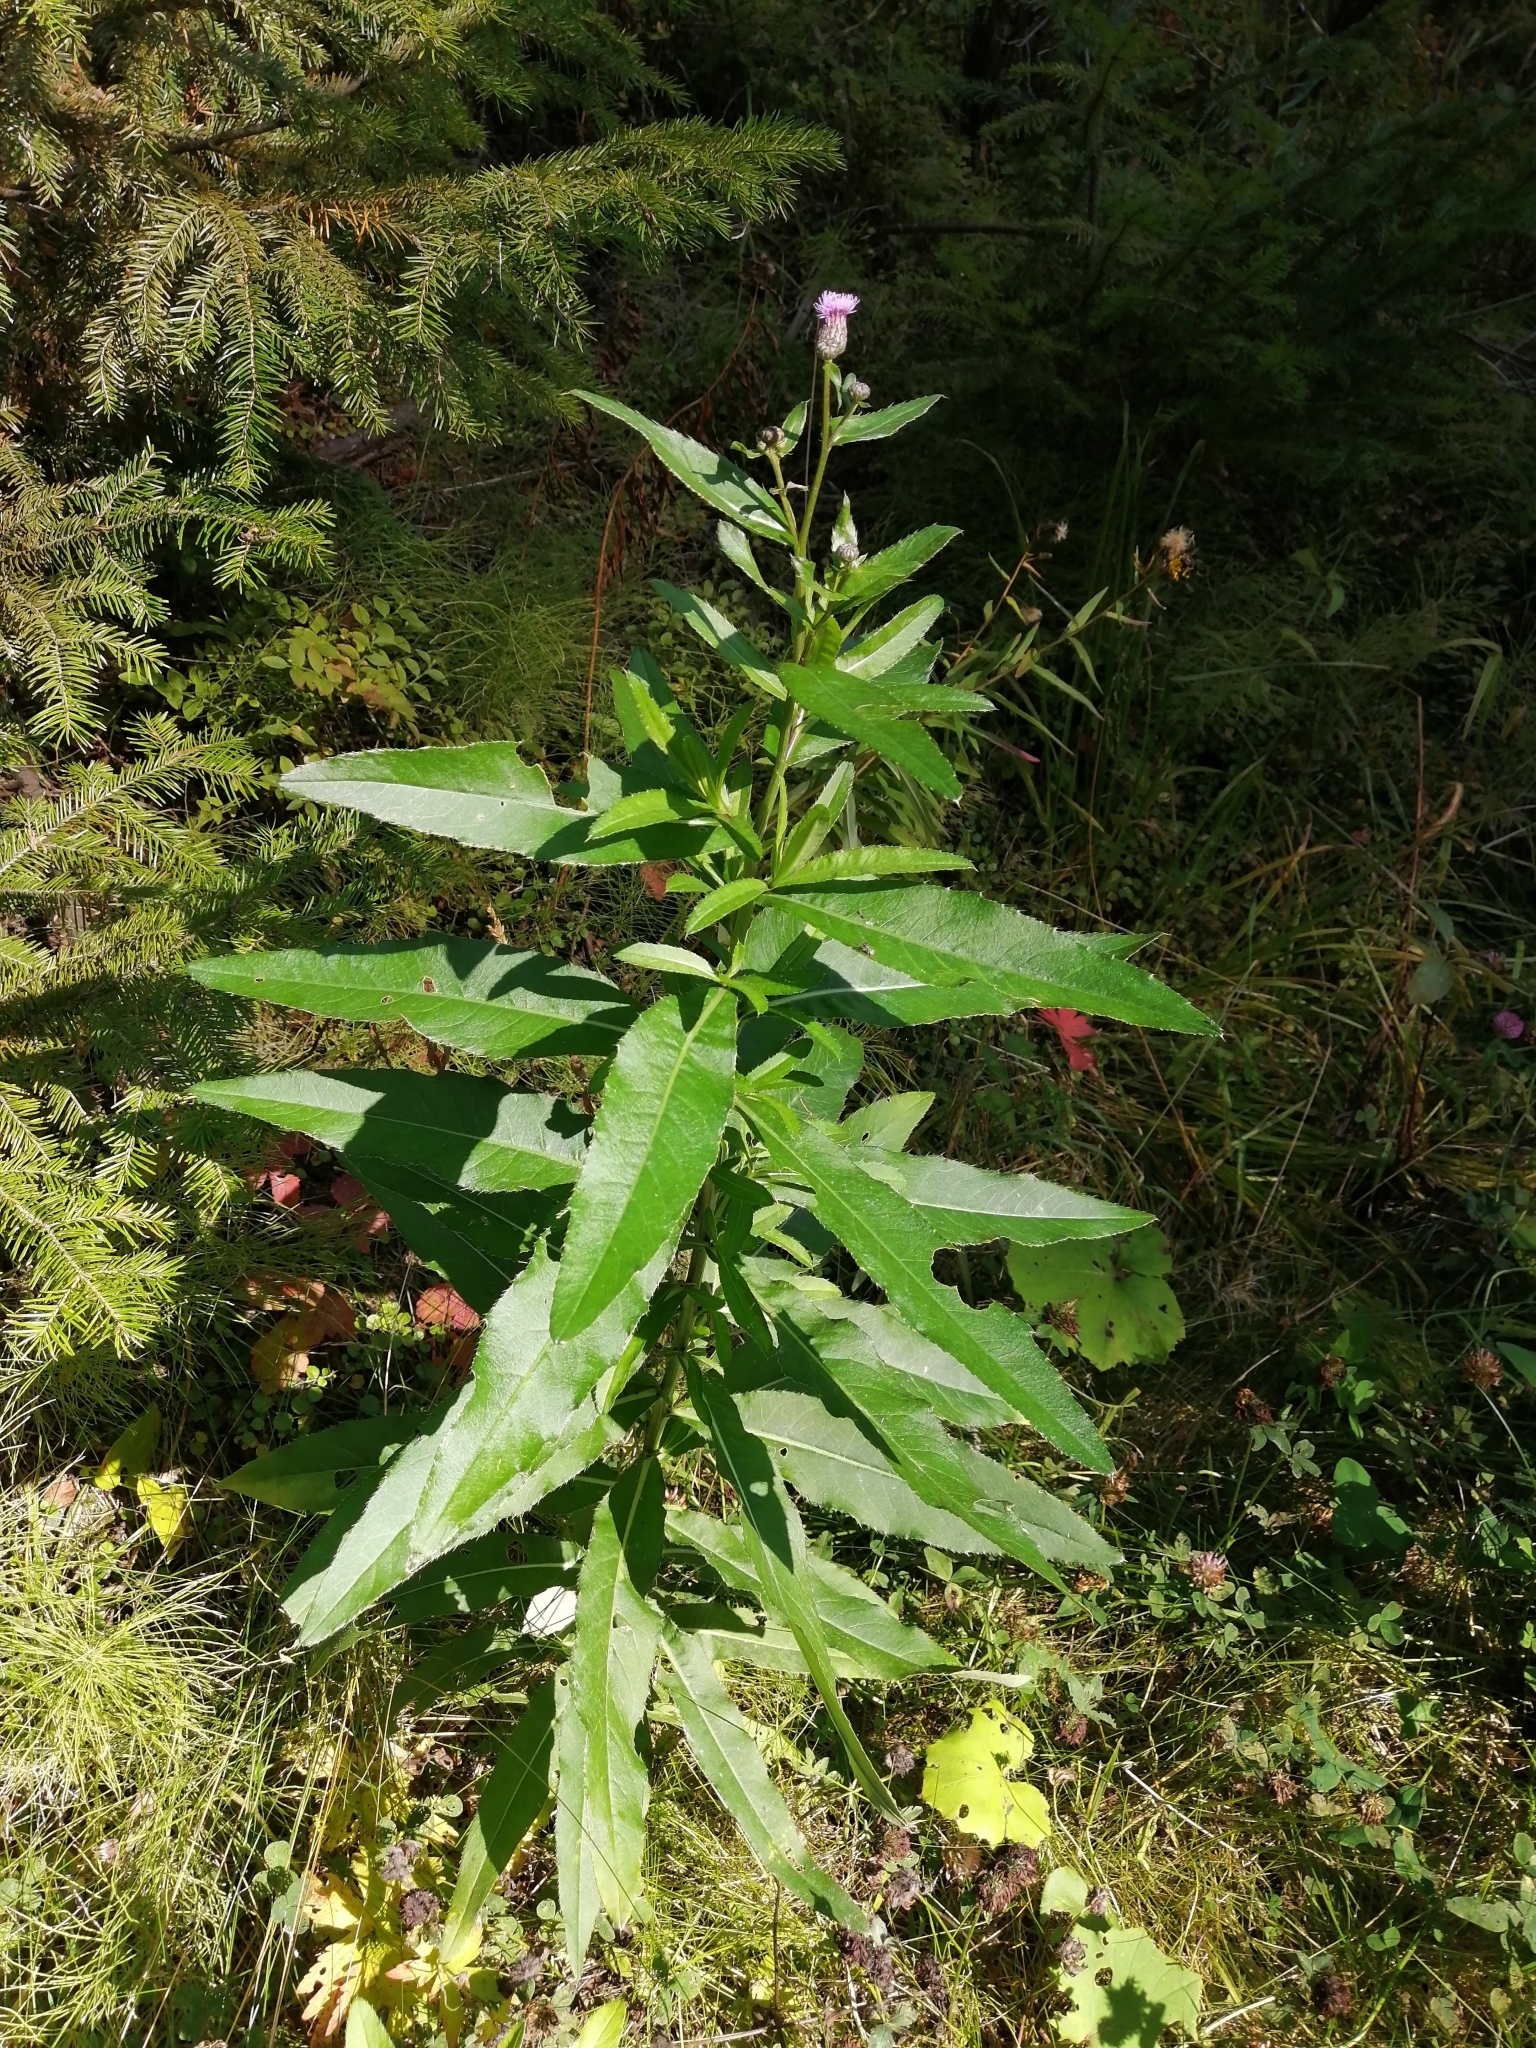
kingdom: Plantae
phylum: Tracheophyta
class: Magnoliopsida
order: Asterales
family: Asteraceae
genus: Cirsium
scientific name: Cirsium arvense
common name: Creeping thistle
